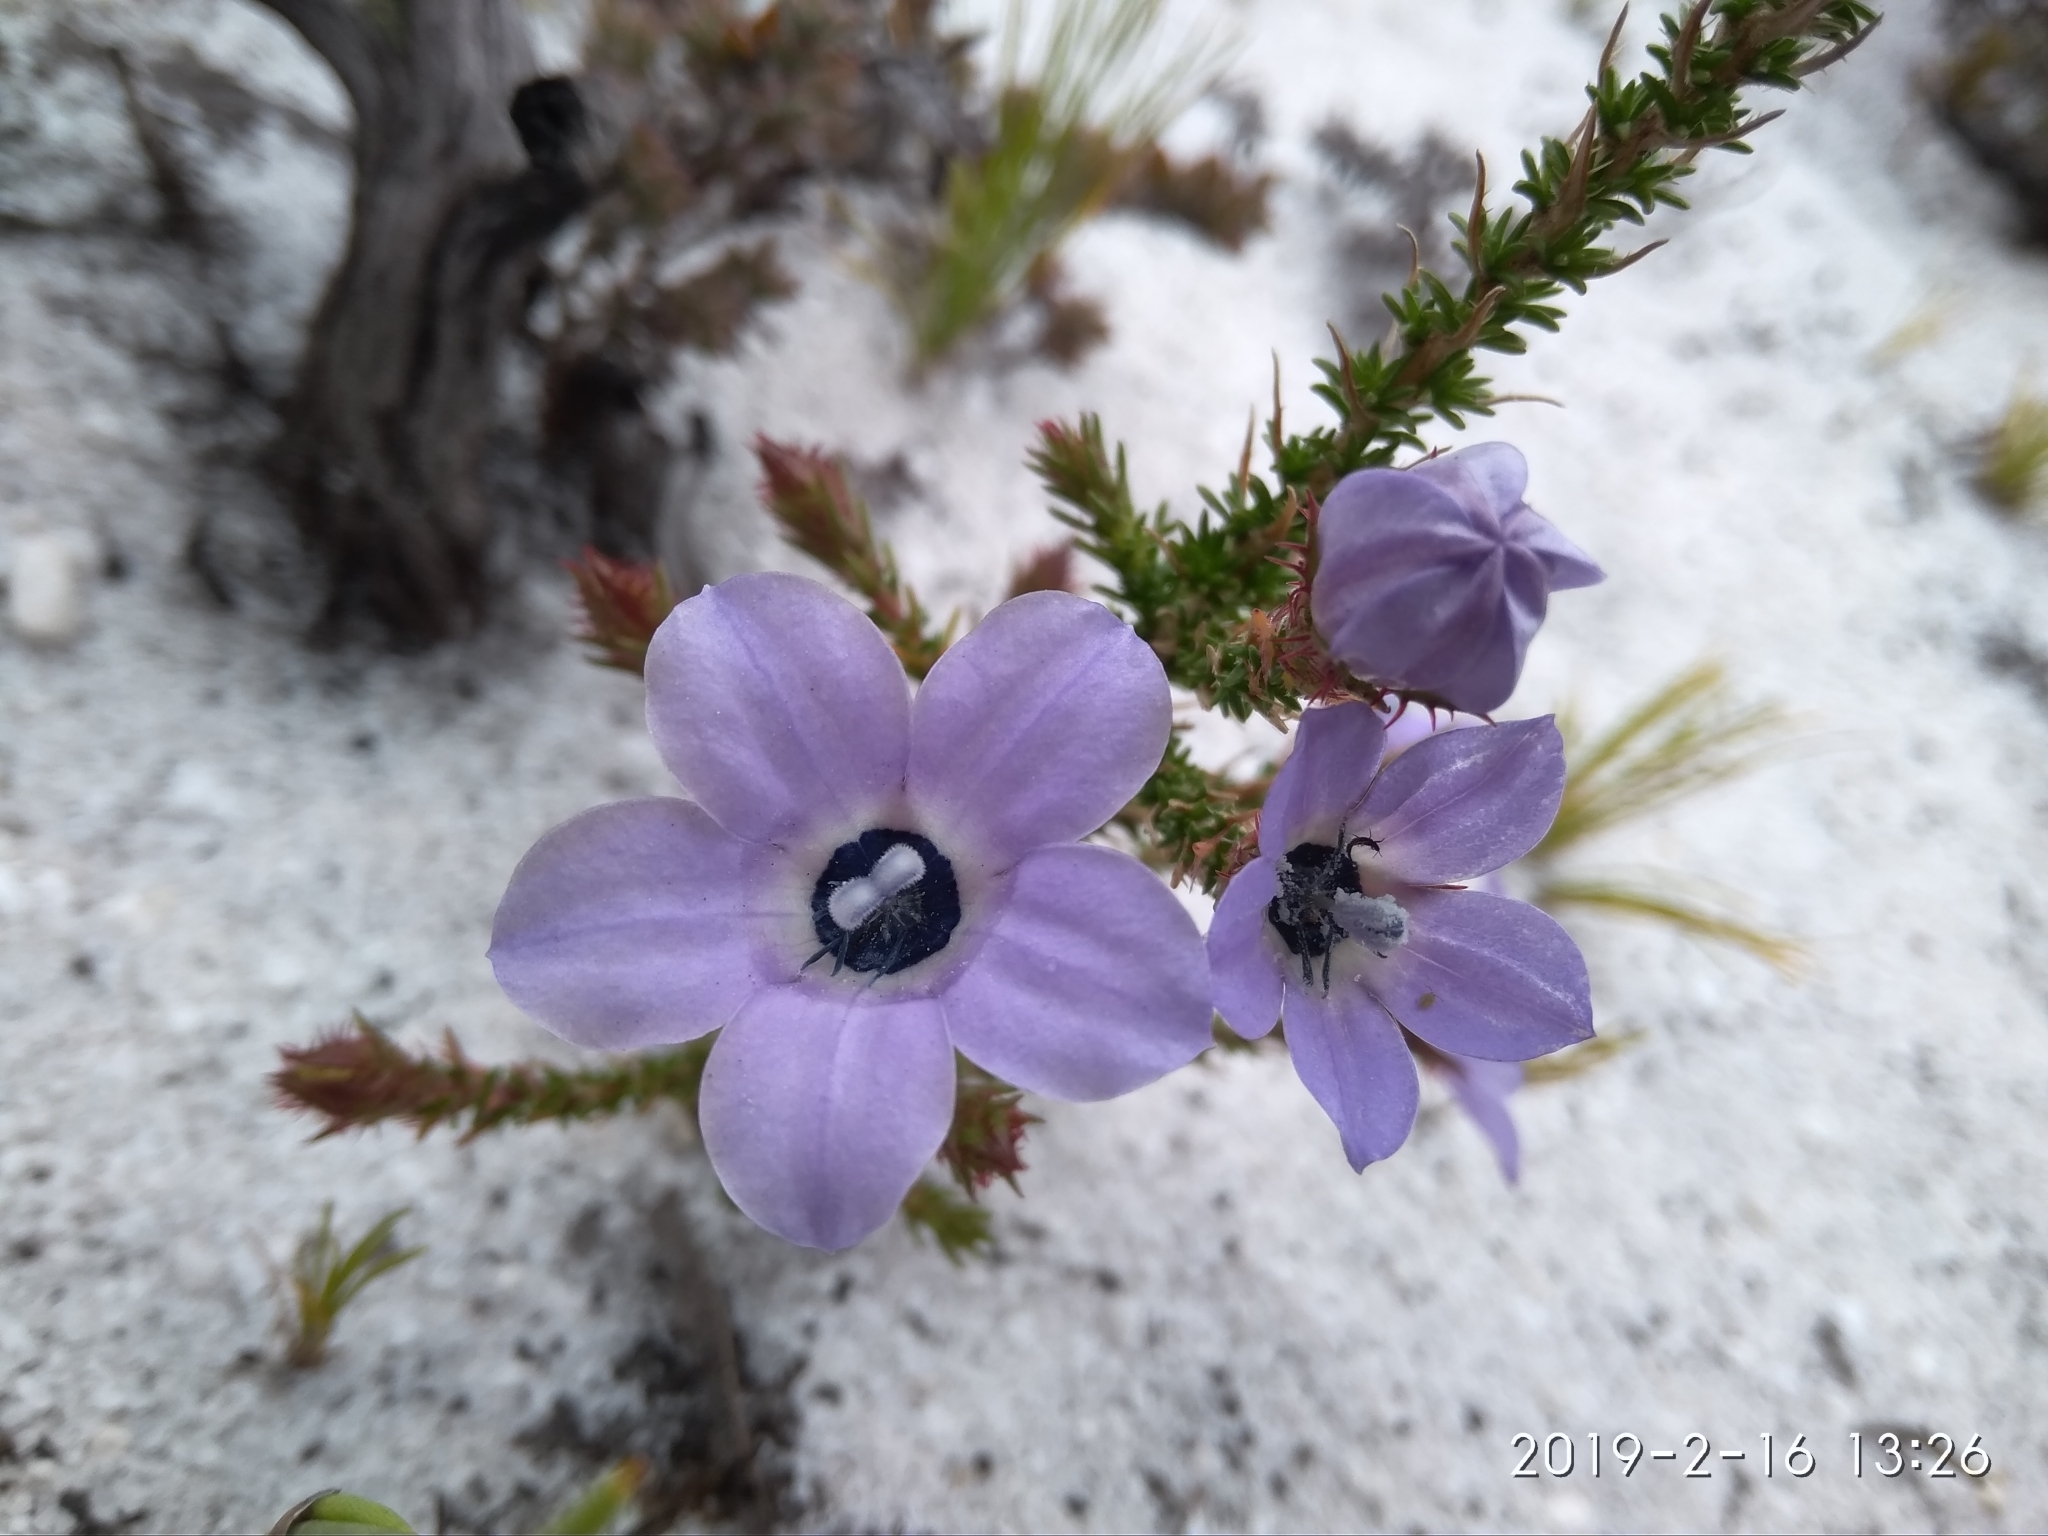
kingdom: Plantae
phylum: Tracheophyta
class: Magnoliopsida
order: Asterales
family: Campanulaceae
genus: Roella
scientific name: Roella triflora
